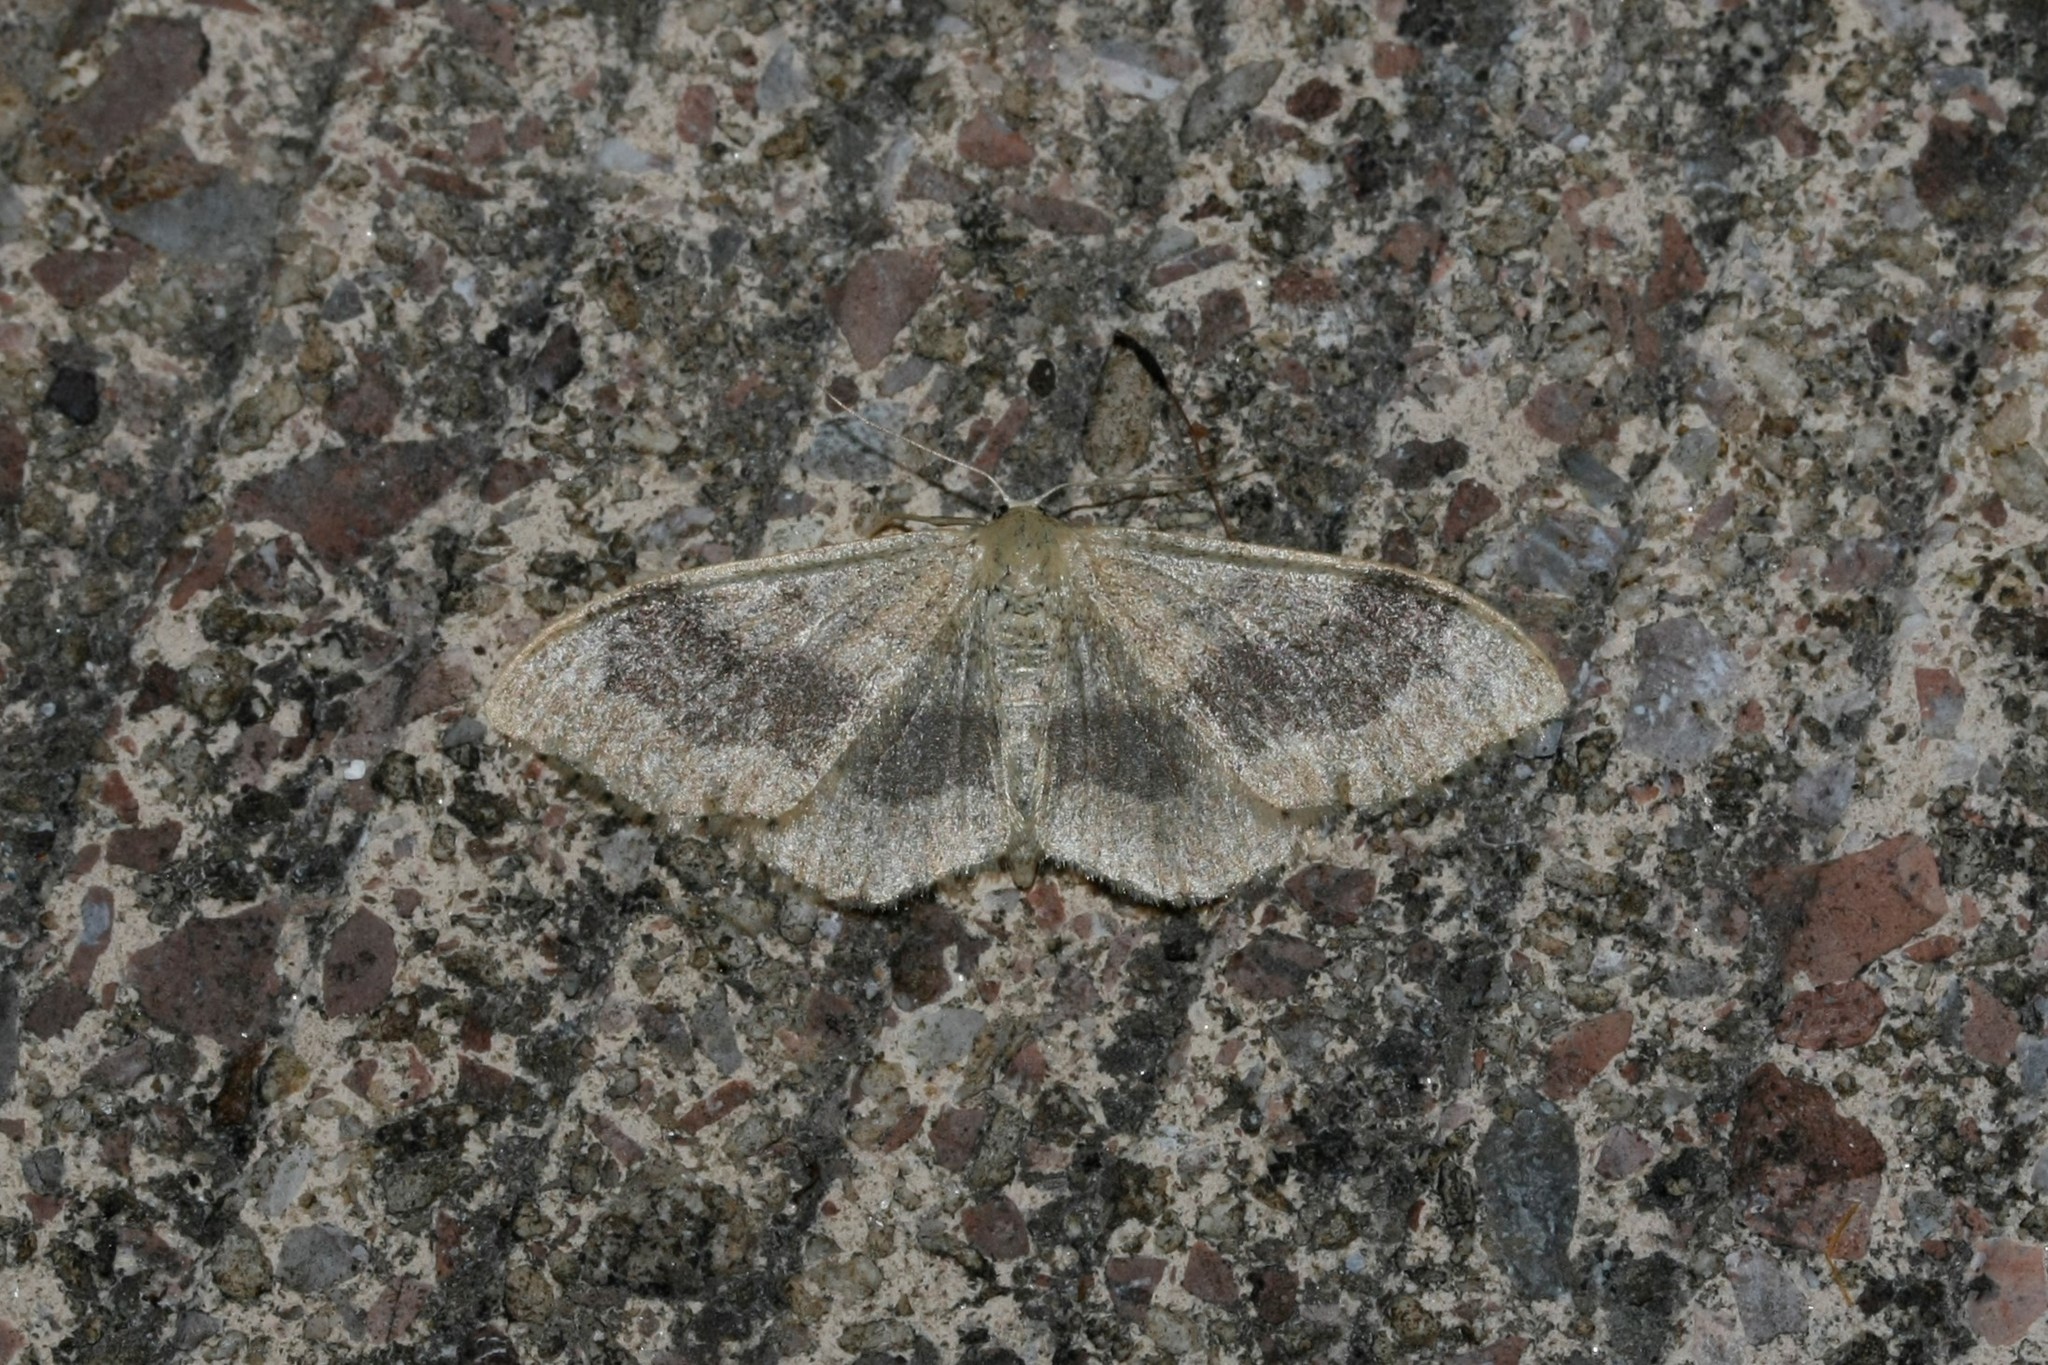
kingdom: Animalia
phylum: Arthropoda
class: Insecta
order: Lepidoptera
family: Geometridae
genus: Idaea
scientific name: Idaea aversata
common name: Riband wave
